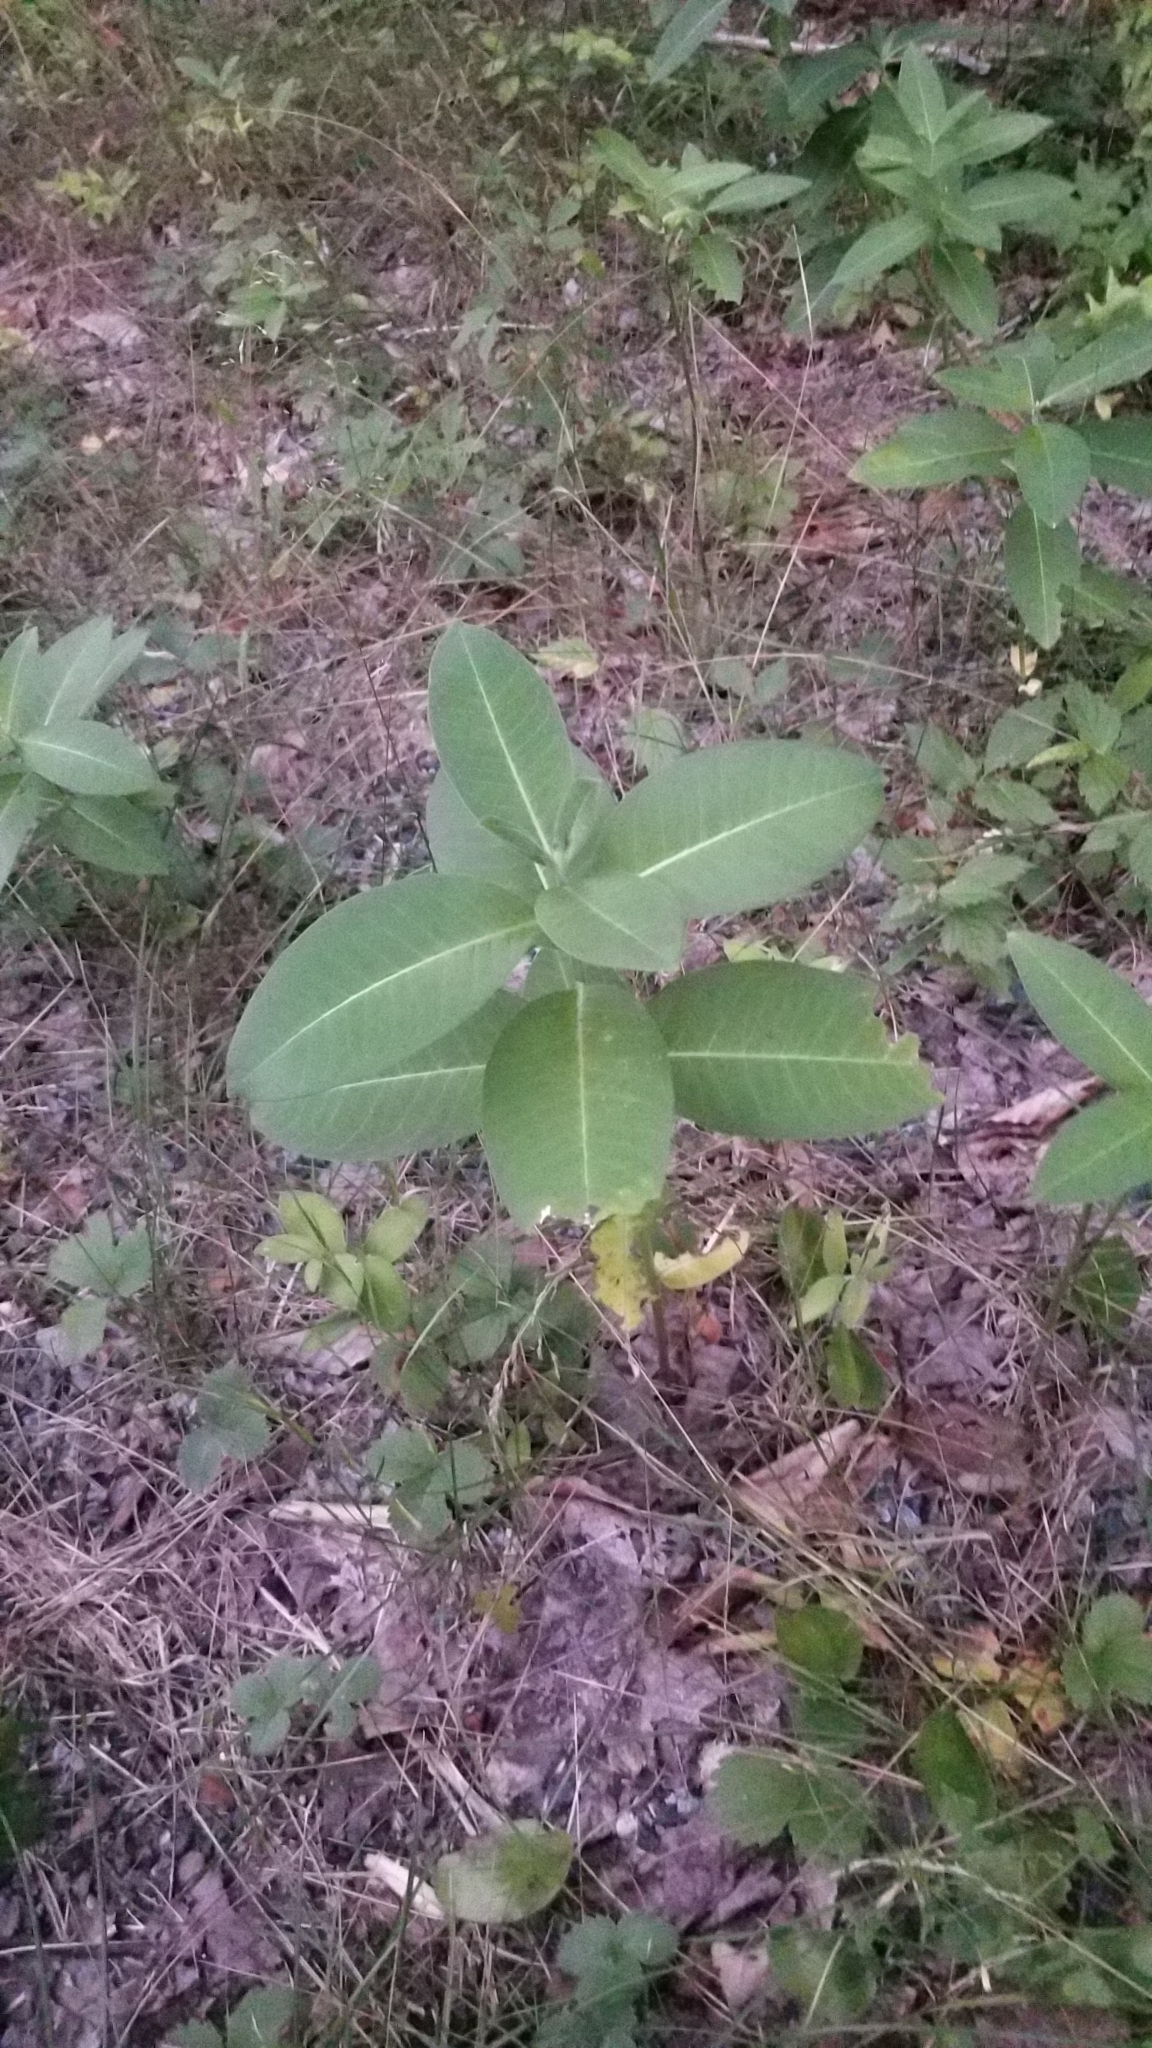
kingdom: Plantae
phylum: Tracheophyta
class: Magnoliopsida
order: Gentianales
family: Apocynaceae
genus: Asclepias
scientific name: Asclepias syriaca
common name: Common milkweed
